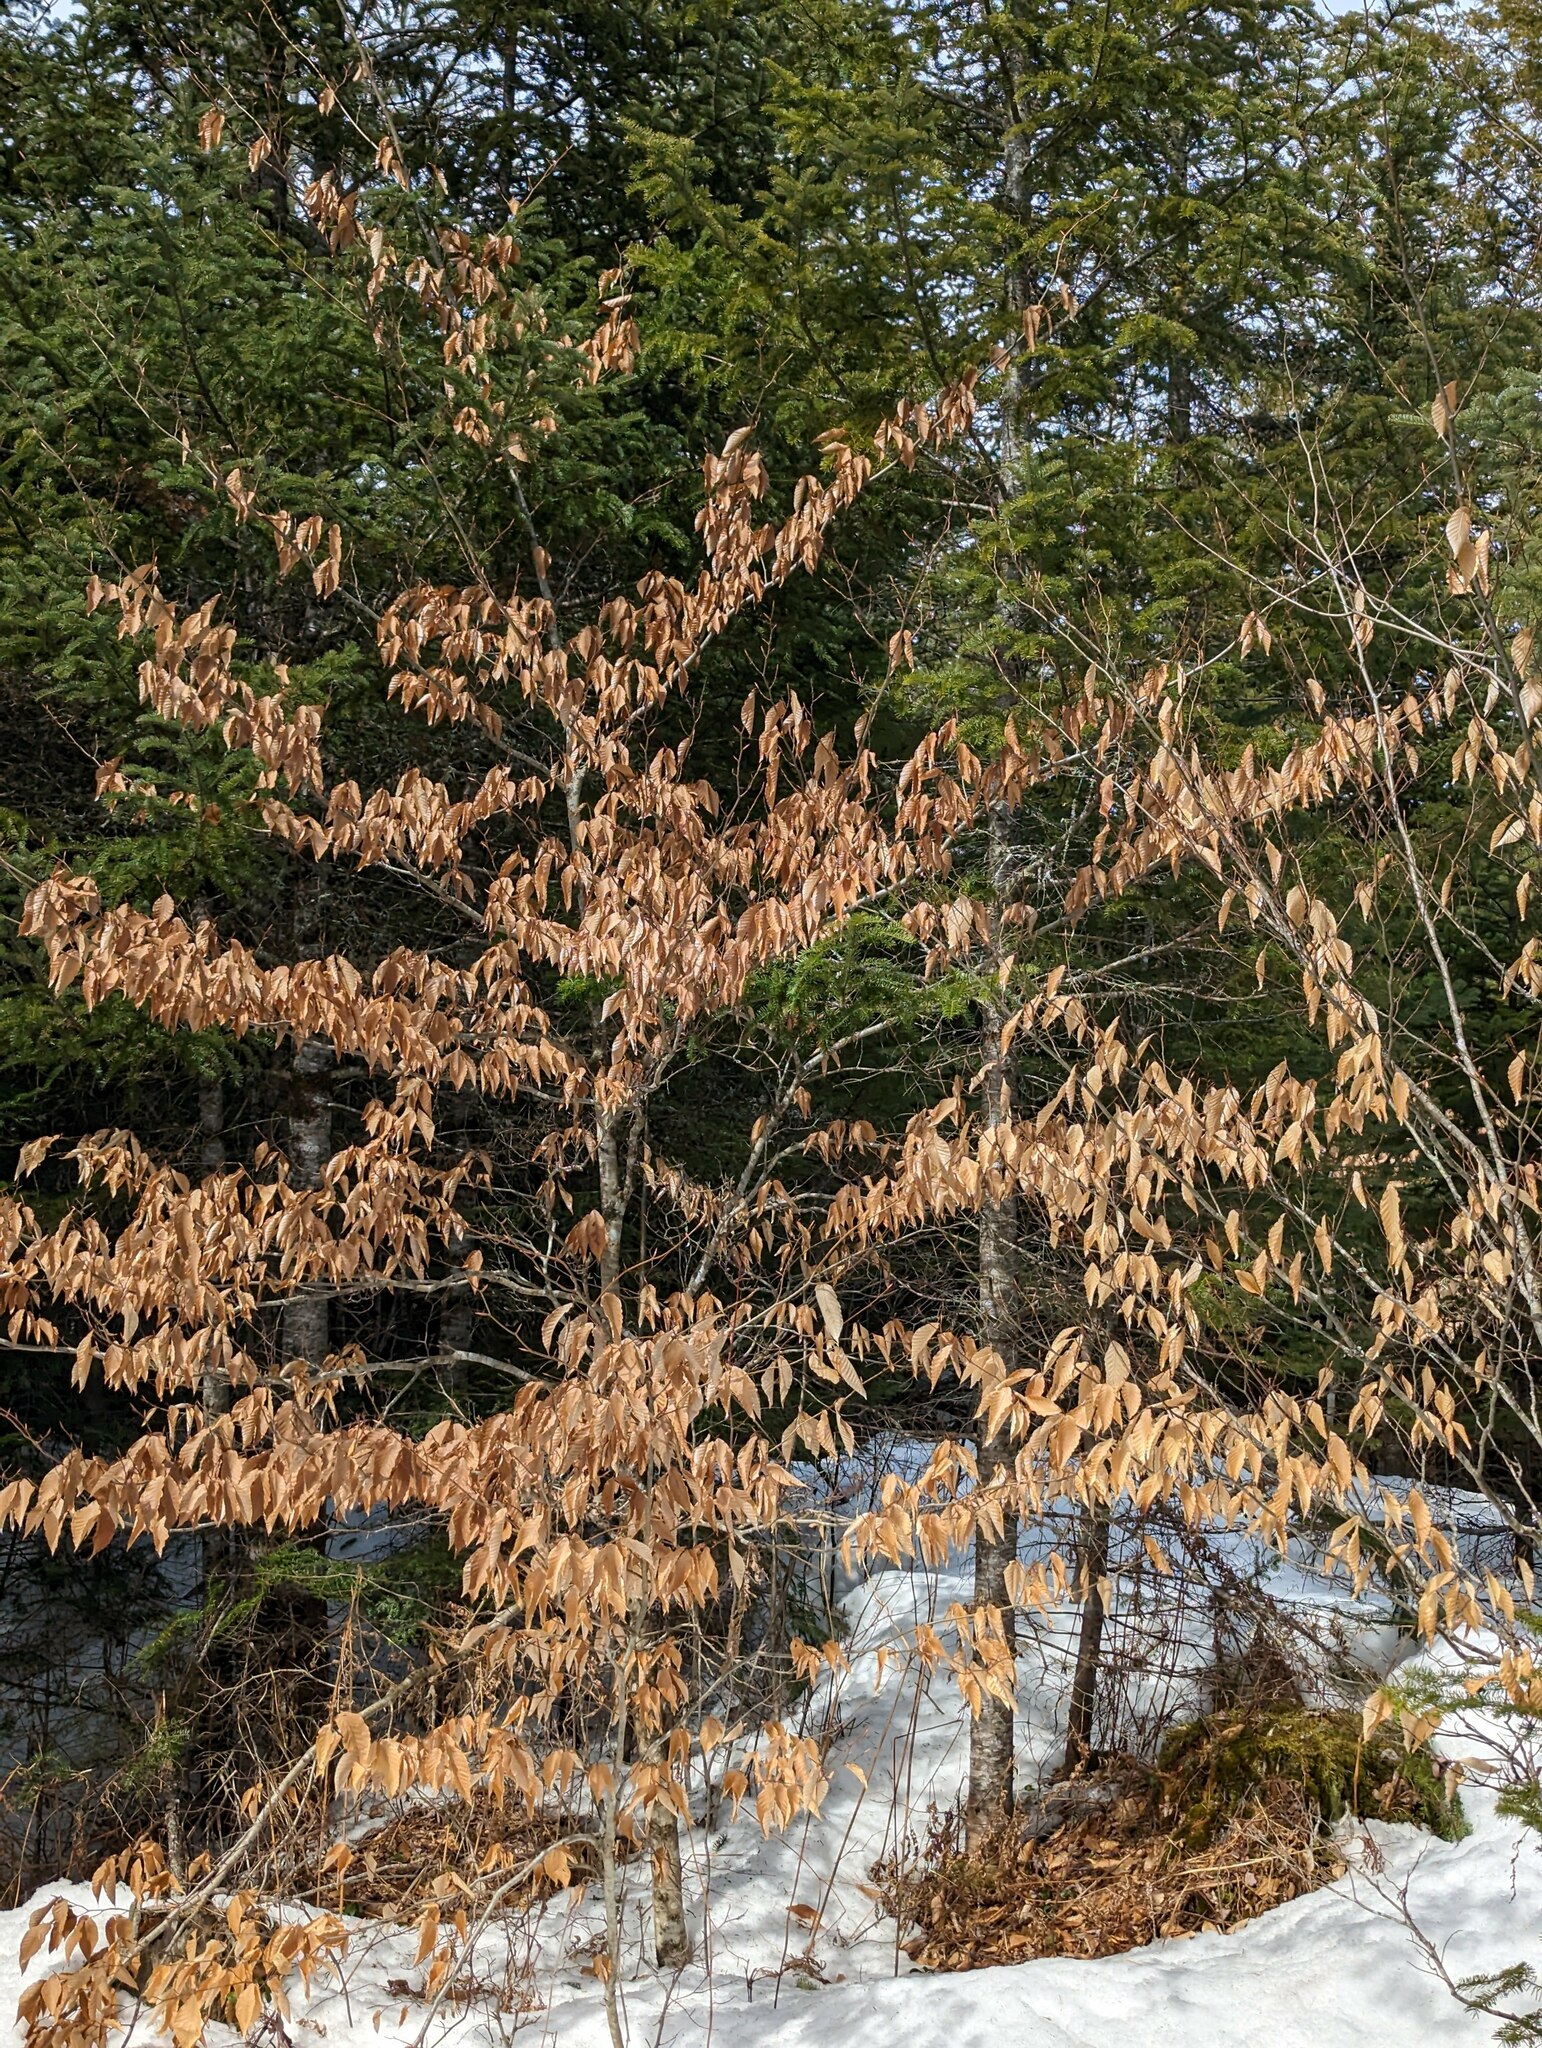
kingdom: Plantae
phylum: Tracheophyta
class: Magnoliopsida
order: Fagales
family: Fagaceae
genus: Fagus
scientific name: Fagus grandifolia
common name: American beech
